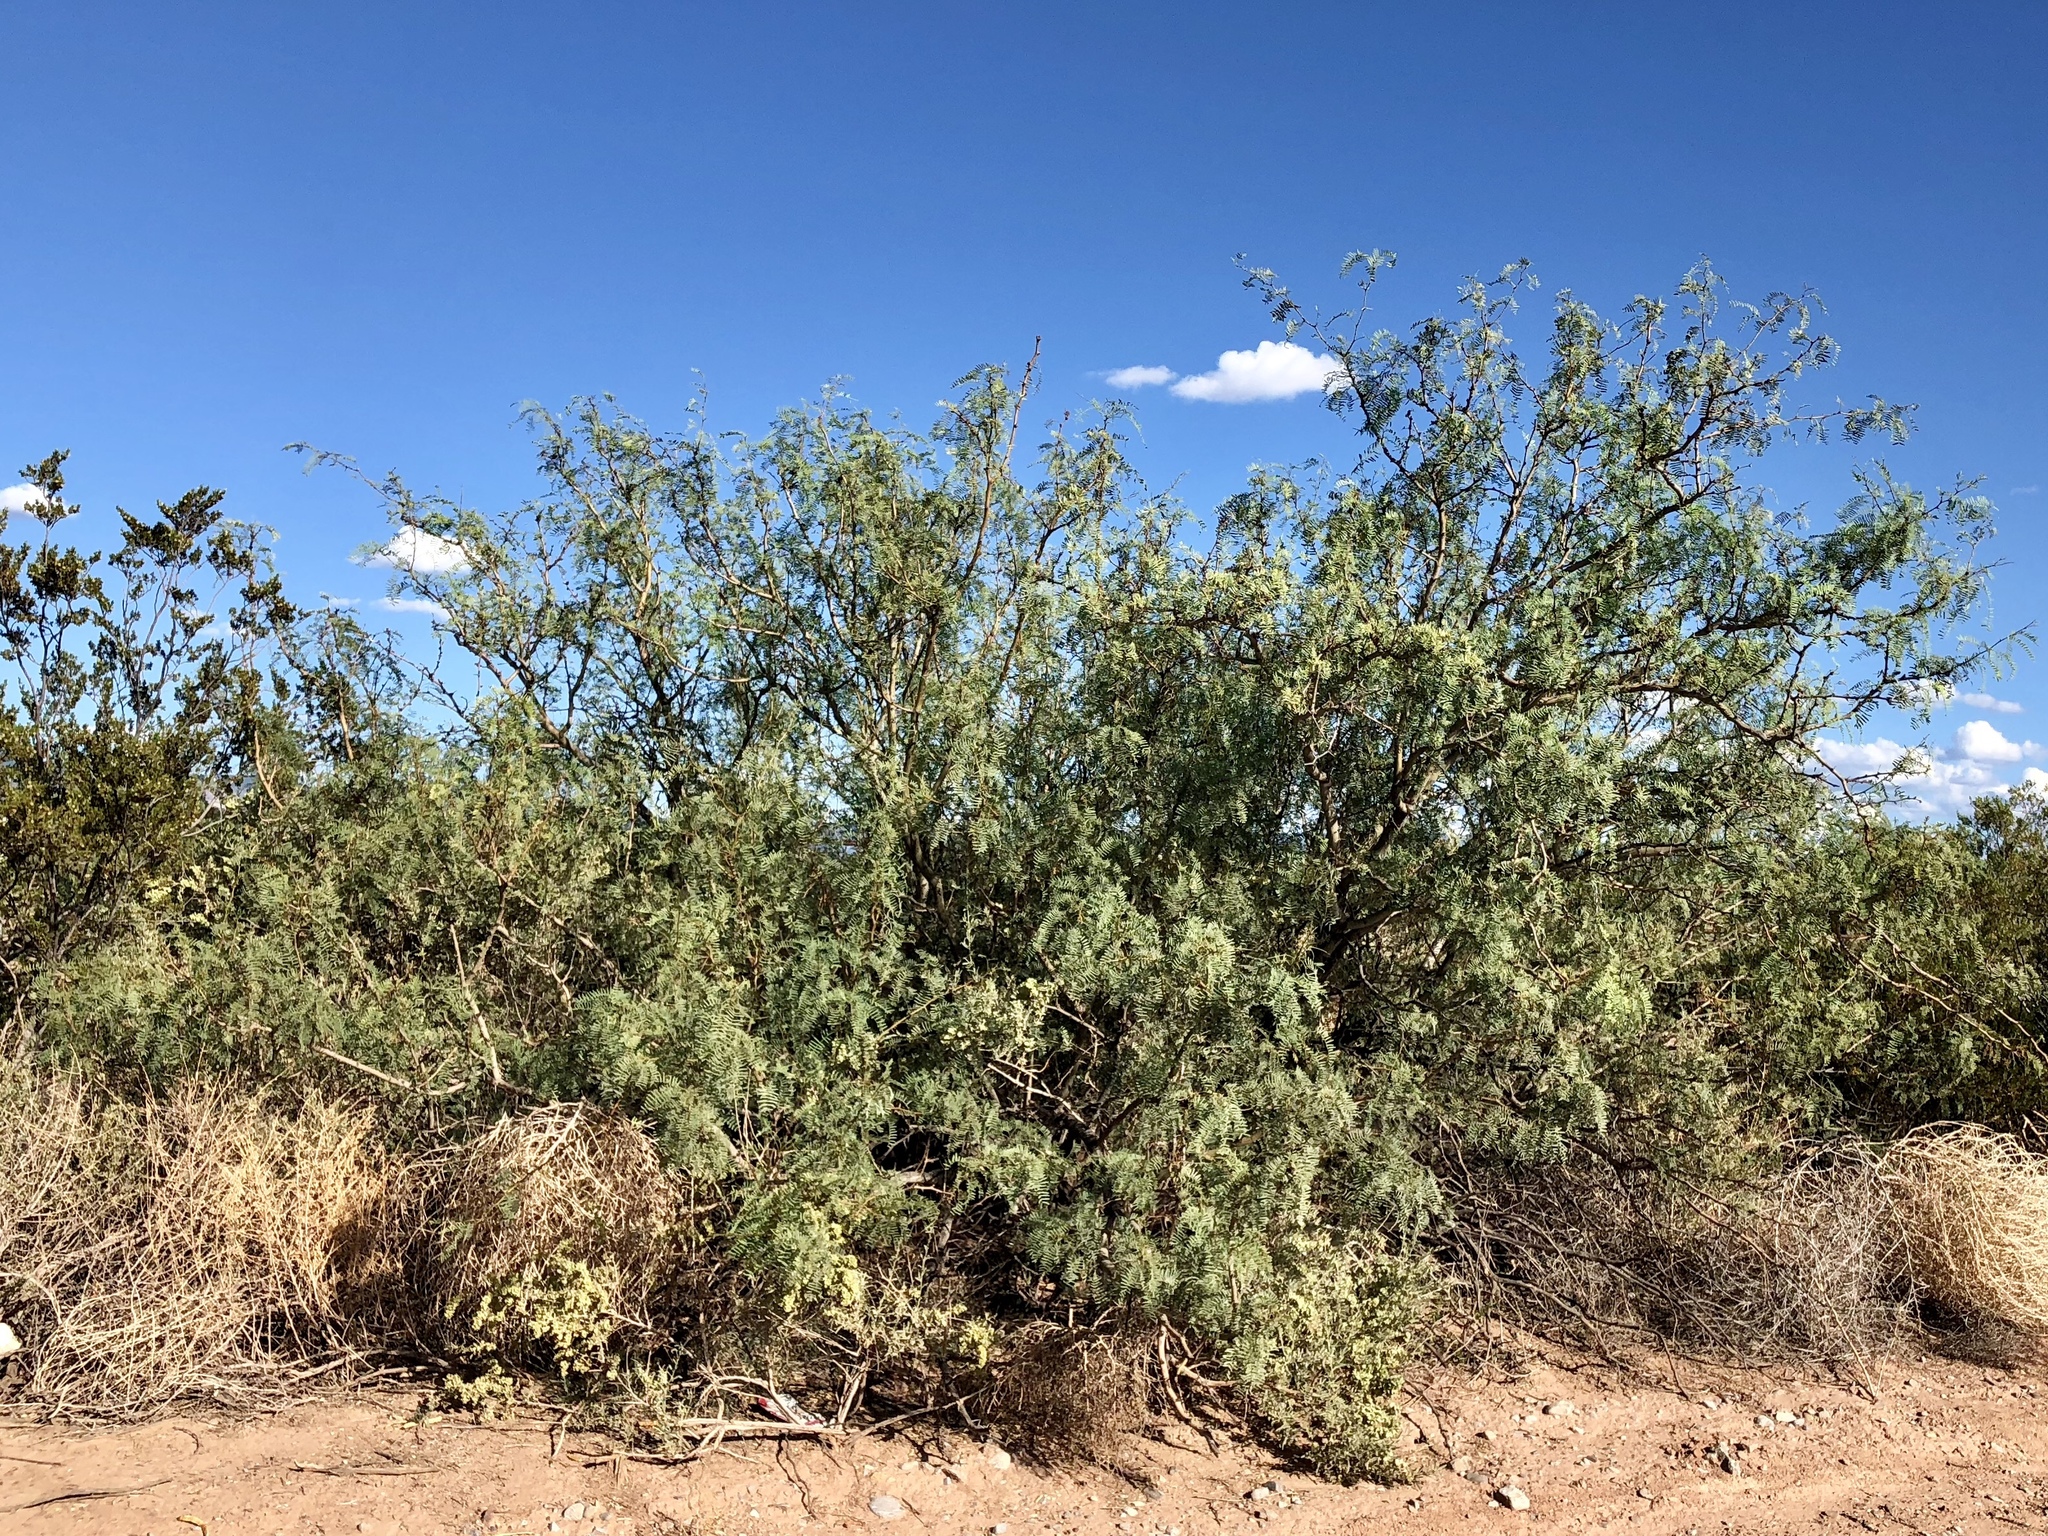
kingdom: Plantae
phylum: Tracheophyta
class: Magnoliopsida
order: Fabales
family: Fabaceae
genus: Prosopis
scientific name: Prosopis glandulosa
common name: Honey mesquite
